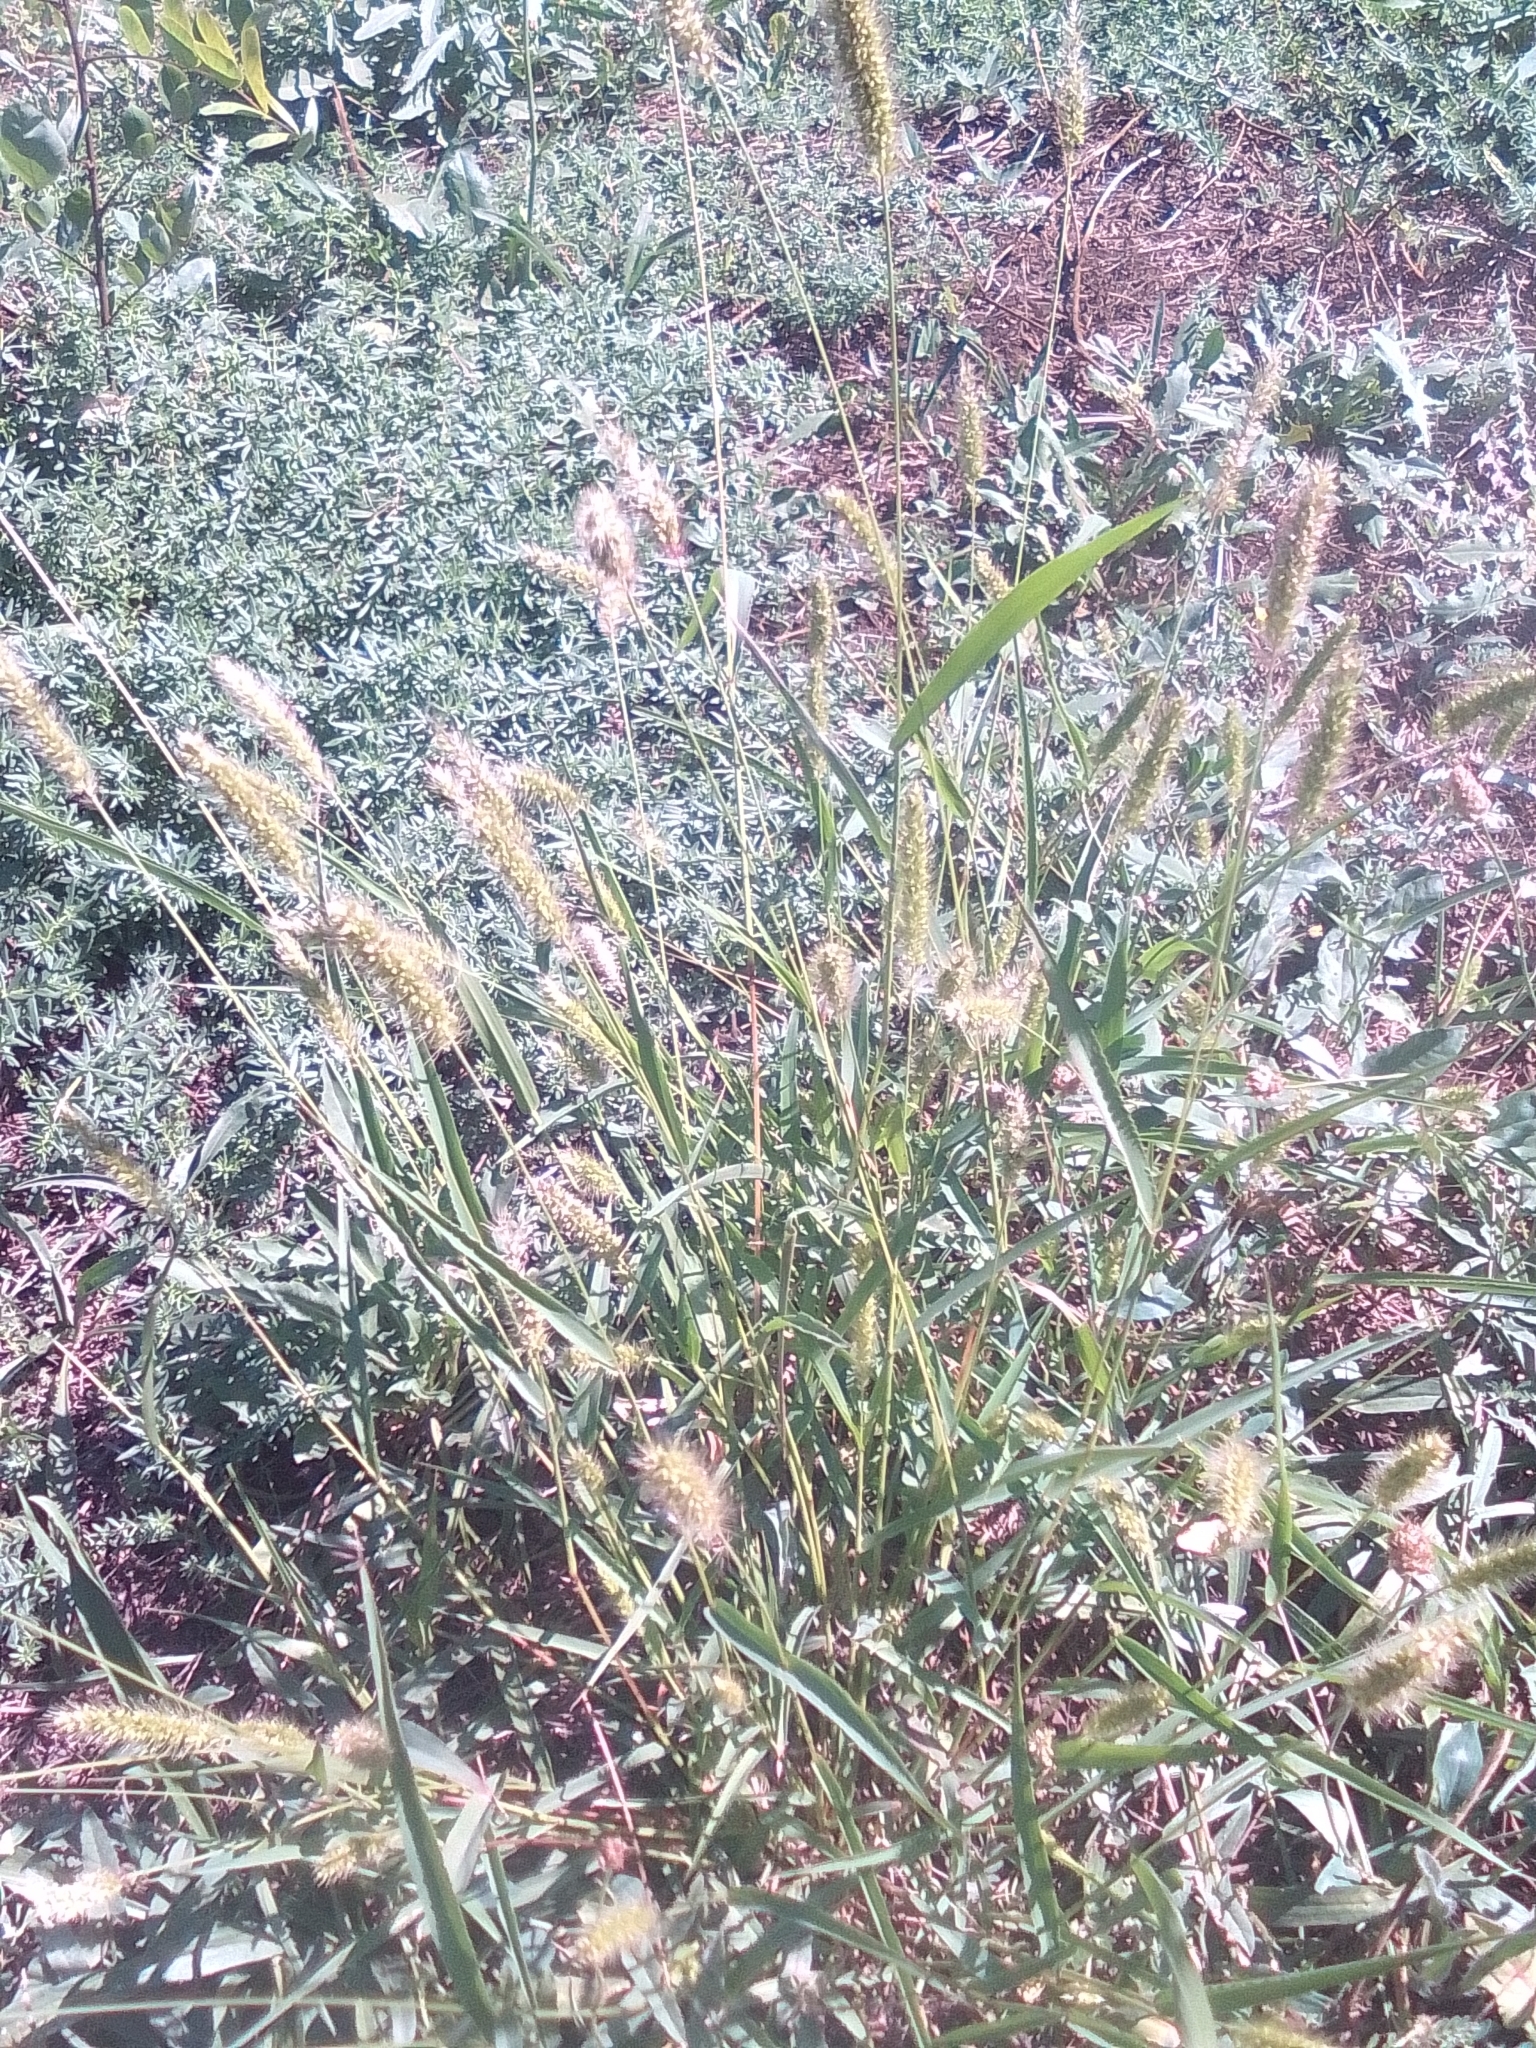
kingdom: Plantae
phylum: Tracheophyta
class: Liliopsida
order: Poales
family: Poaceae
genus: Setaria
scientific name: Setaria viridis
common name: Green bristlegrass
